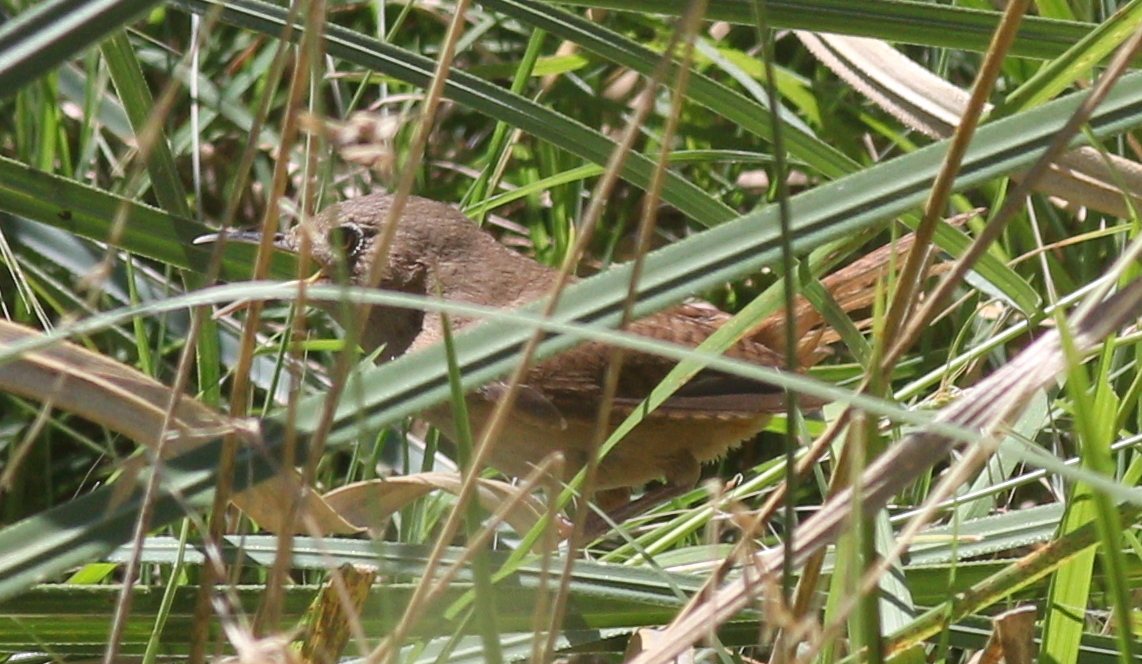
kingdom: Animalia
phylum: Chordata
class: Aves
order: Passeriformes
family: Troglodytidae
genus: Troglodytes
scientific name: Troglodytes aedon
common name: House wren
